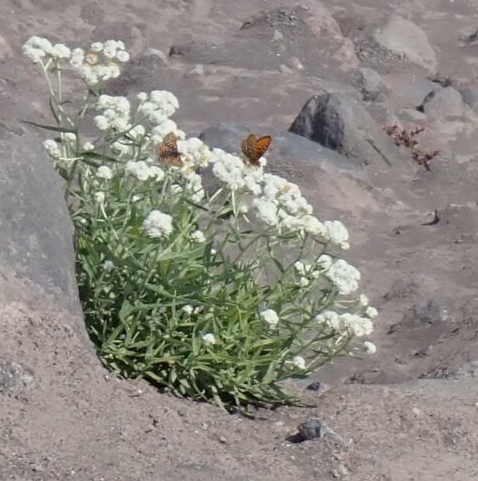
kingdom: Plantae
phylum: Tracheophyta
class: Magnoliopsida
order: Asterales
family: Asteraceae
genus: Anaphalis
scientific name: Anaphalis margaritacea
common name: Pearly everlasting
